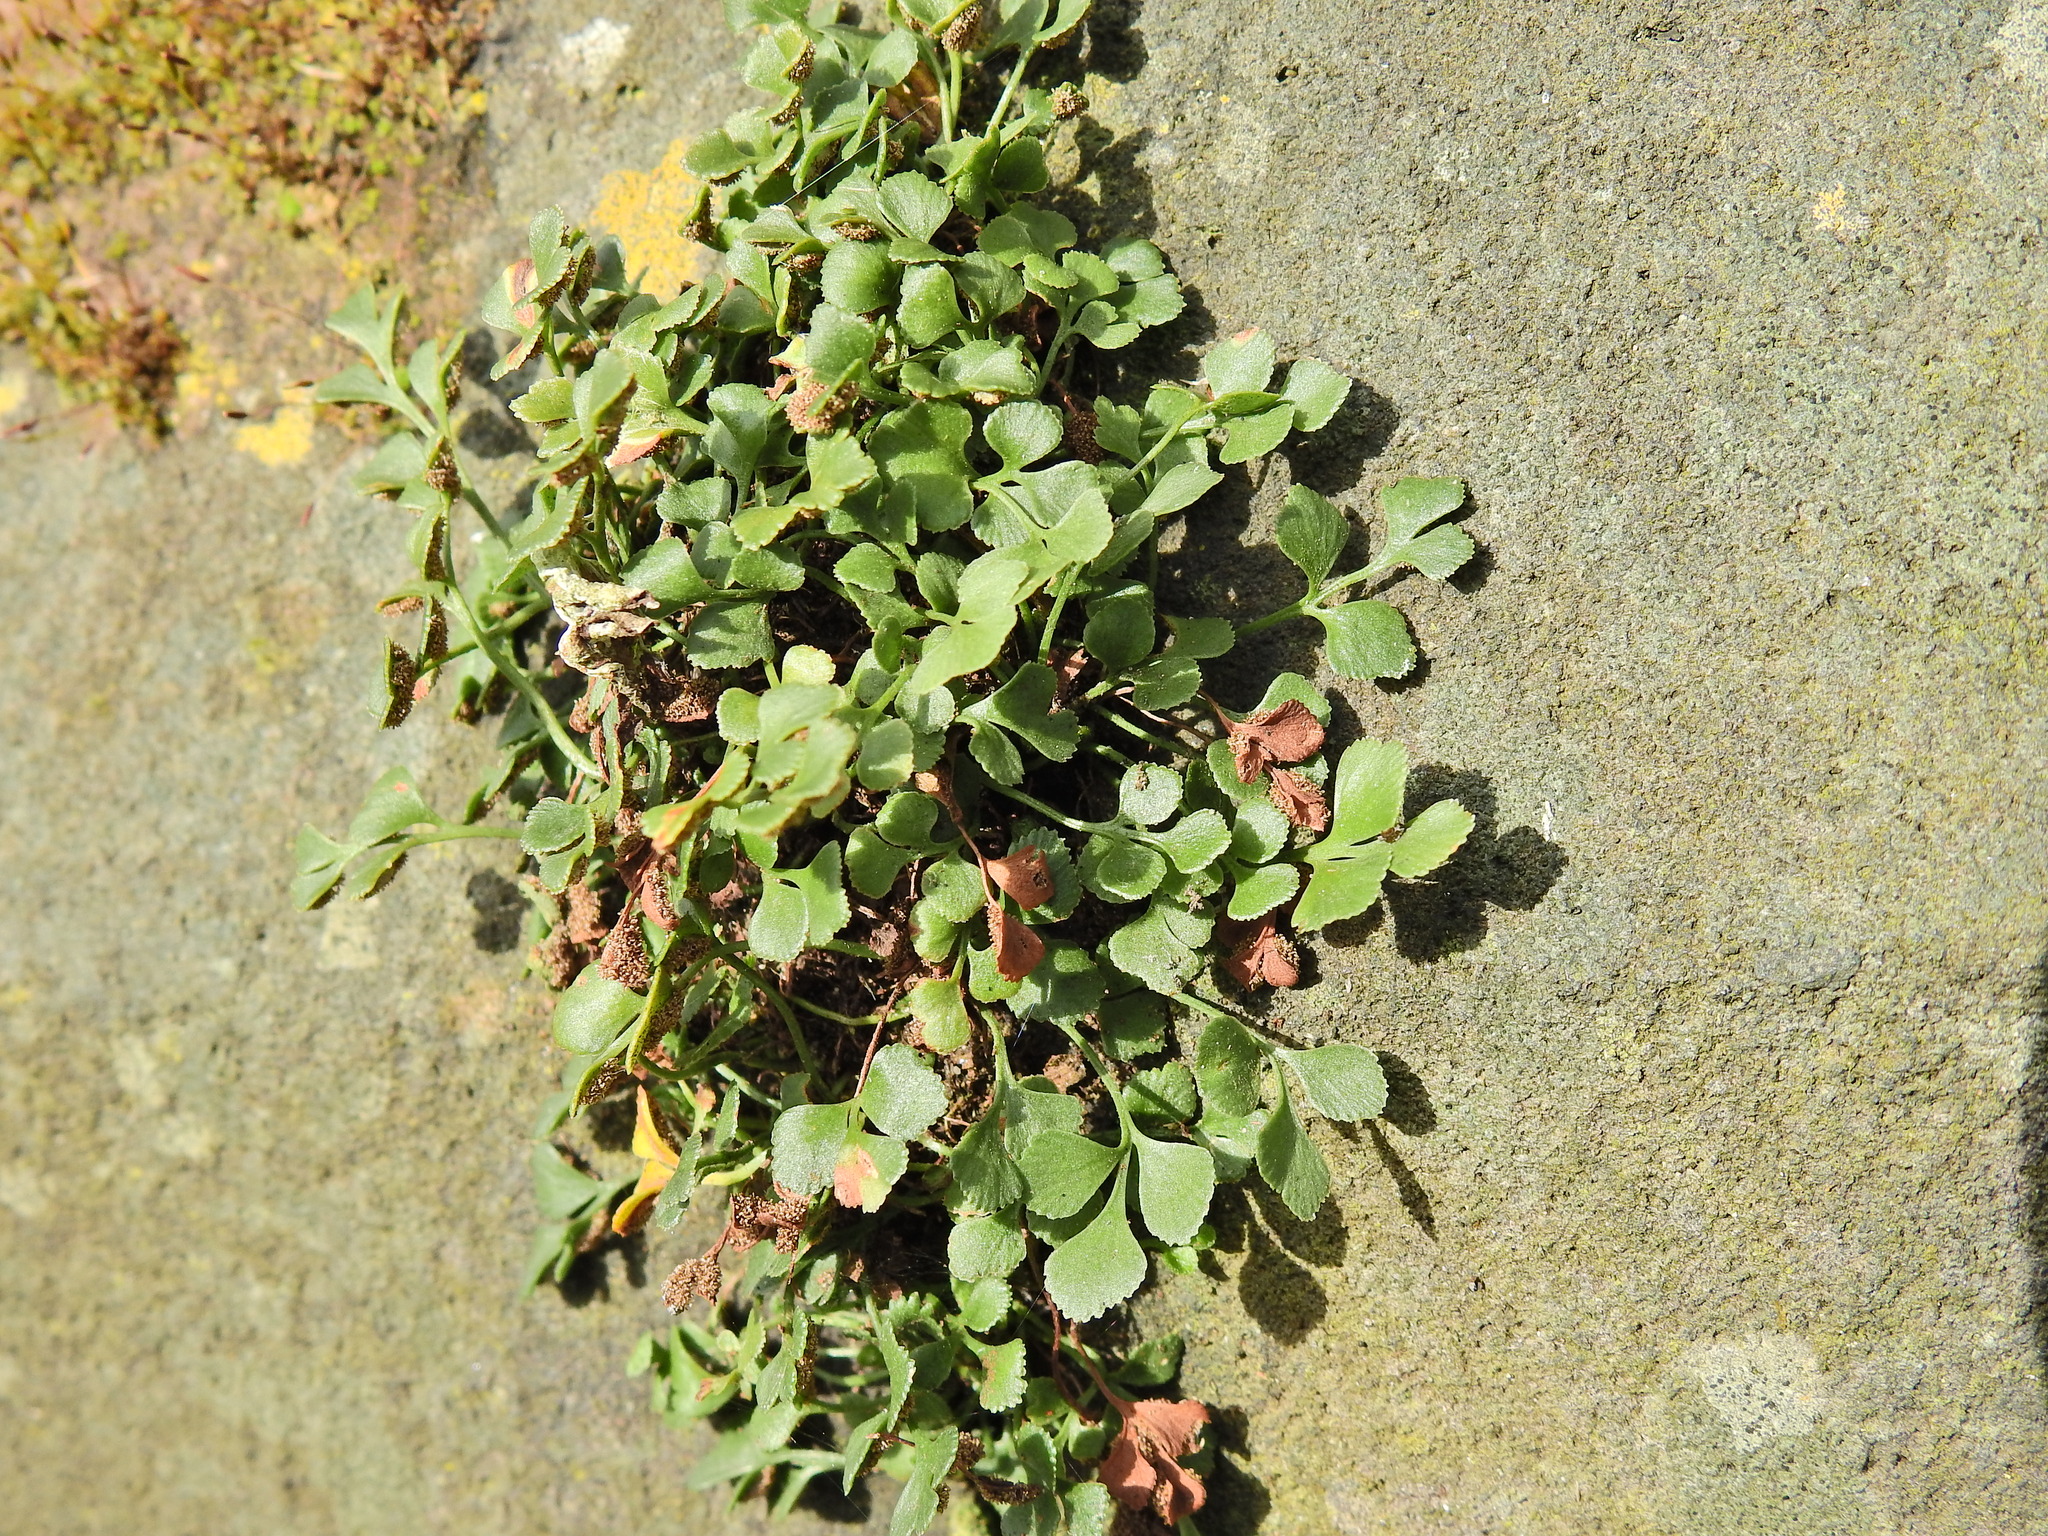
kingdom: Plantae
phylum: Tracheophyta
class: Polypodiopsida
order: Polypodiales
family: Aspleniaceae
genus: Asplenium
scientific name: Asplenium ruta-muraria
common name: Wall-rue
